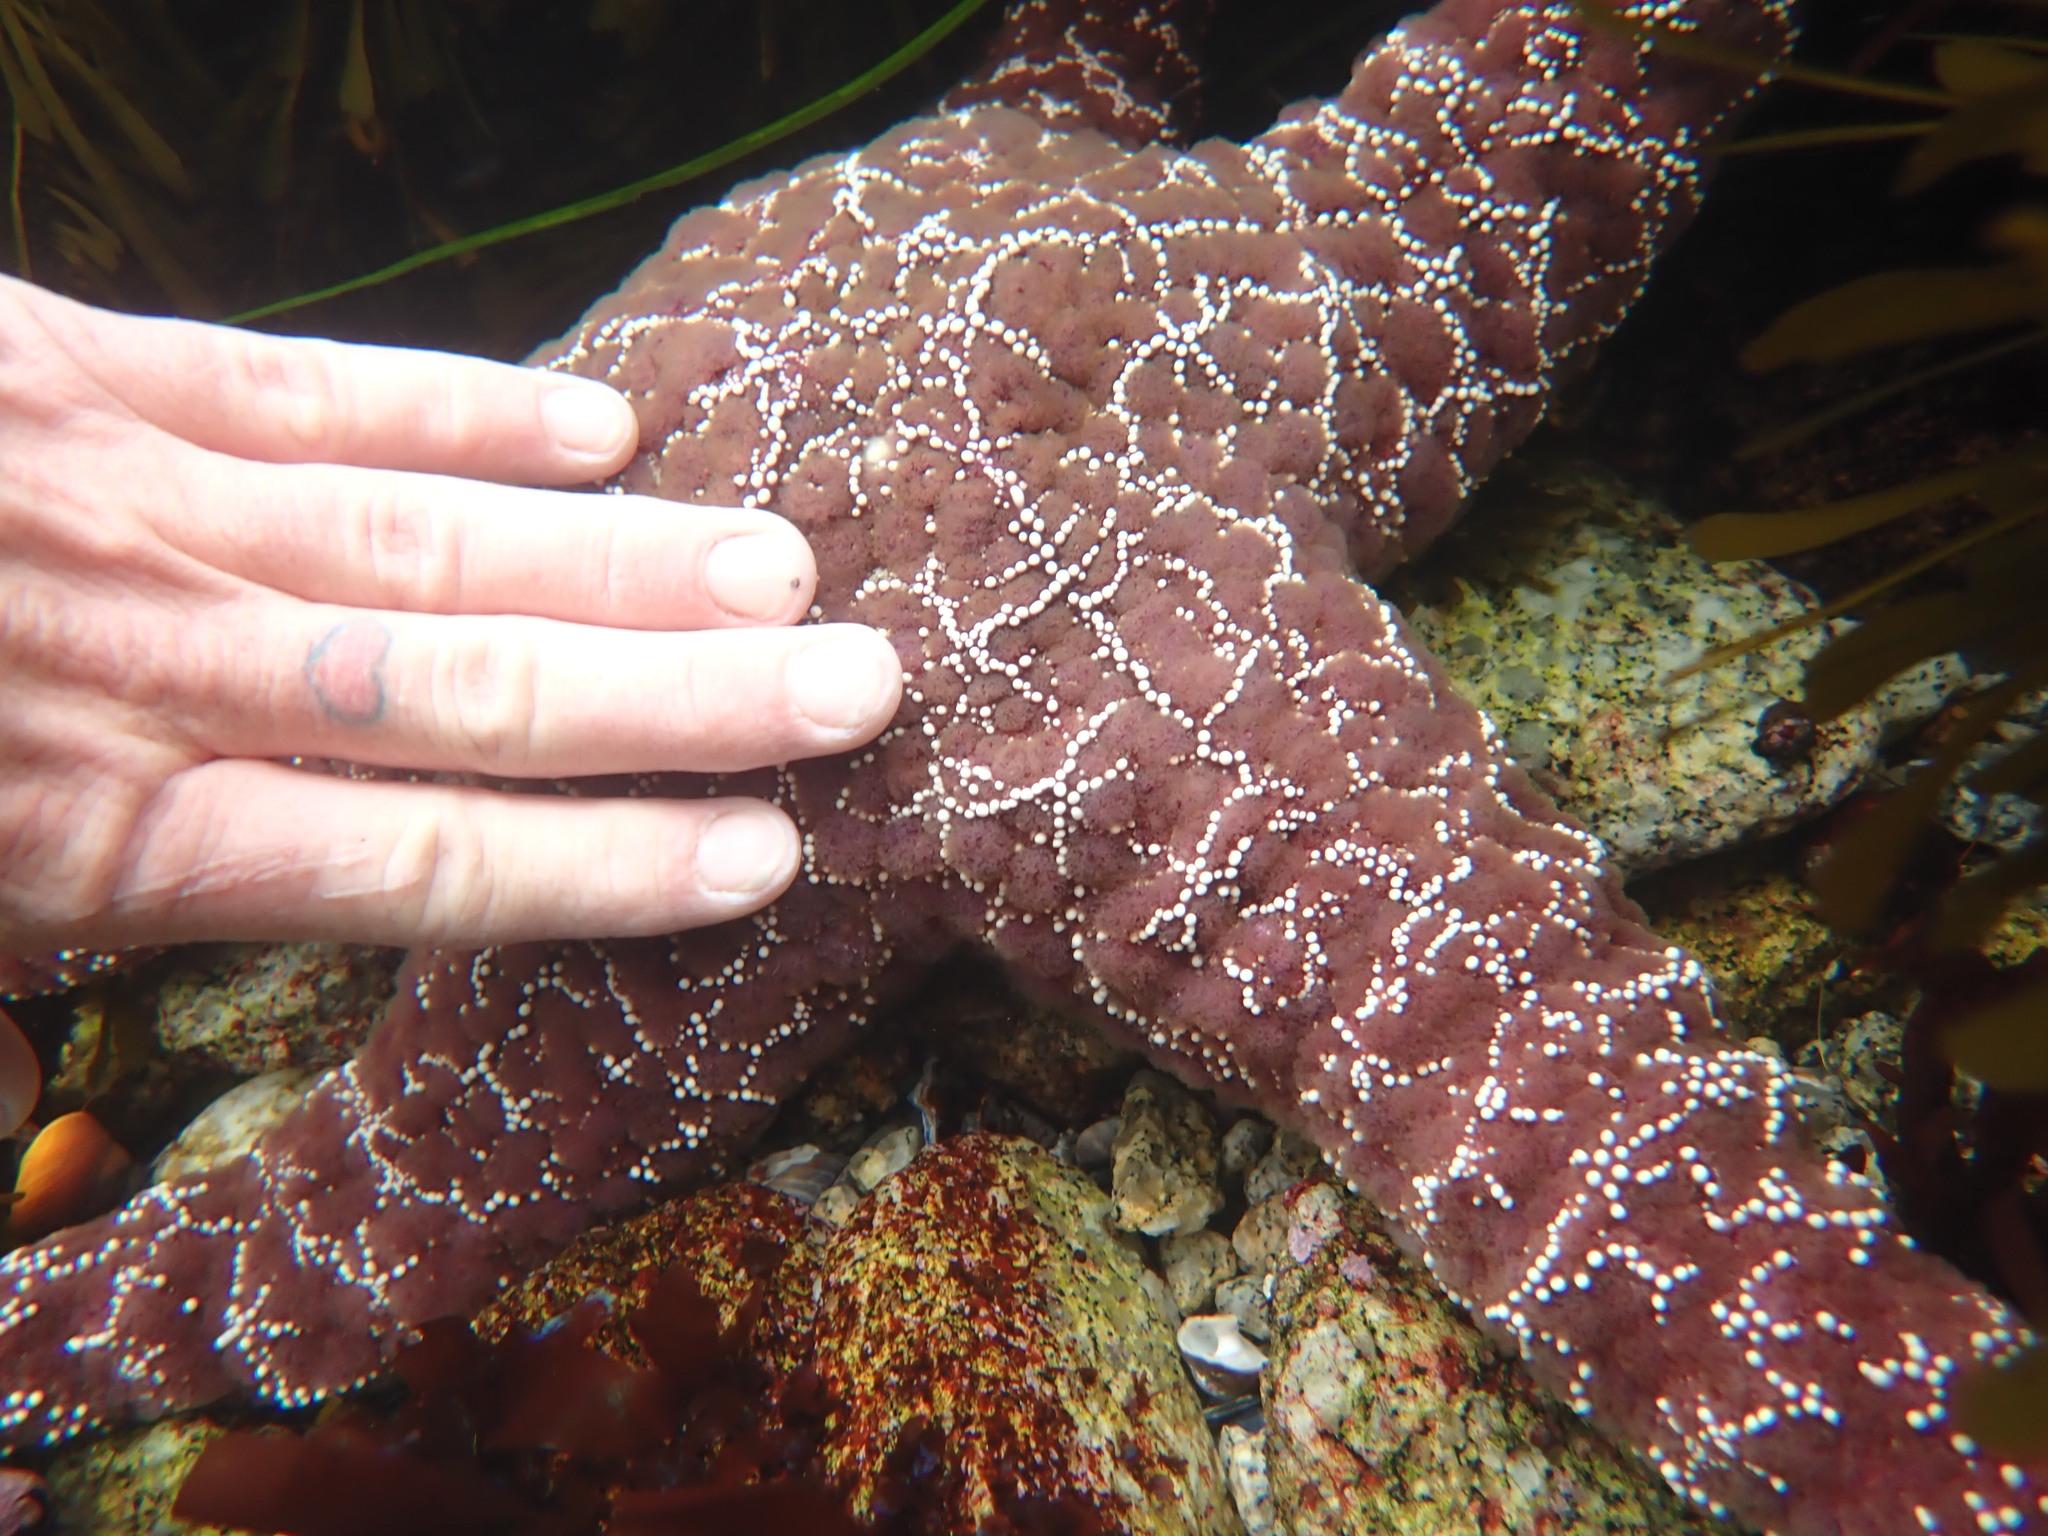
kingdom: Animalia
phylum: Echinodermata
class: Asteroidea
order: Forcipulatida
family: Asteriidae
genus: Pisaster
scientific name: Pisaster ochraceus
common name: Ochre stars
